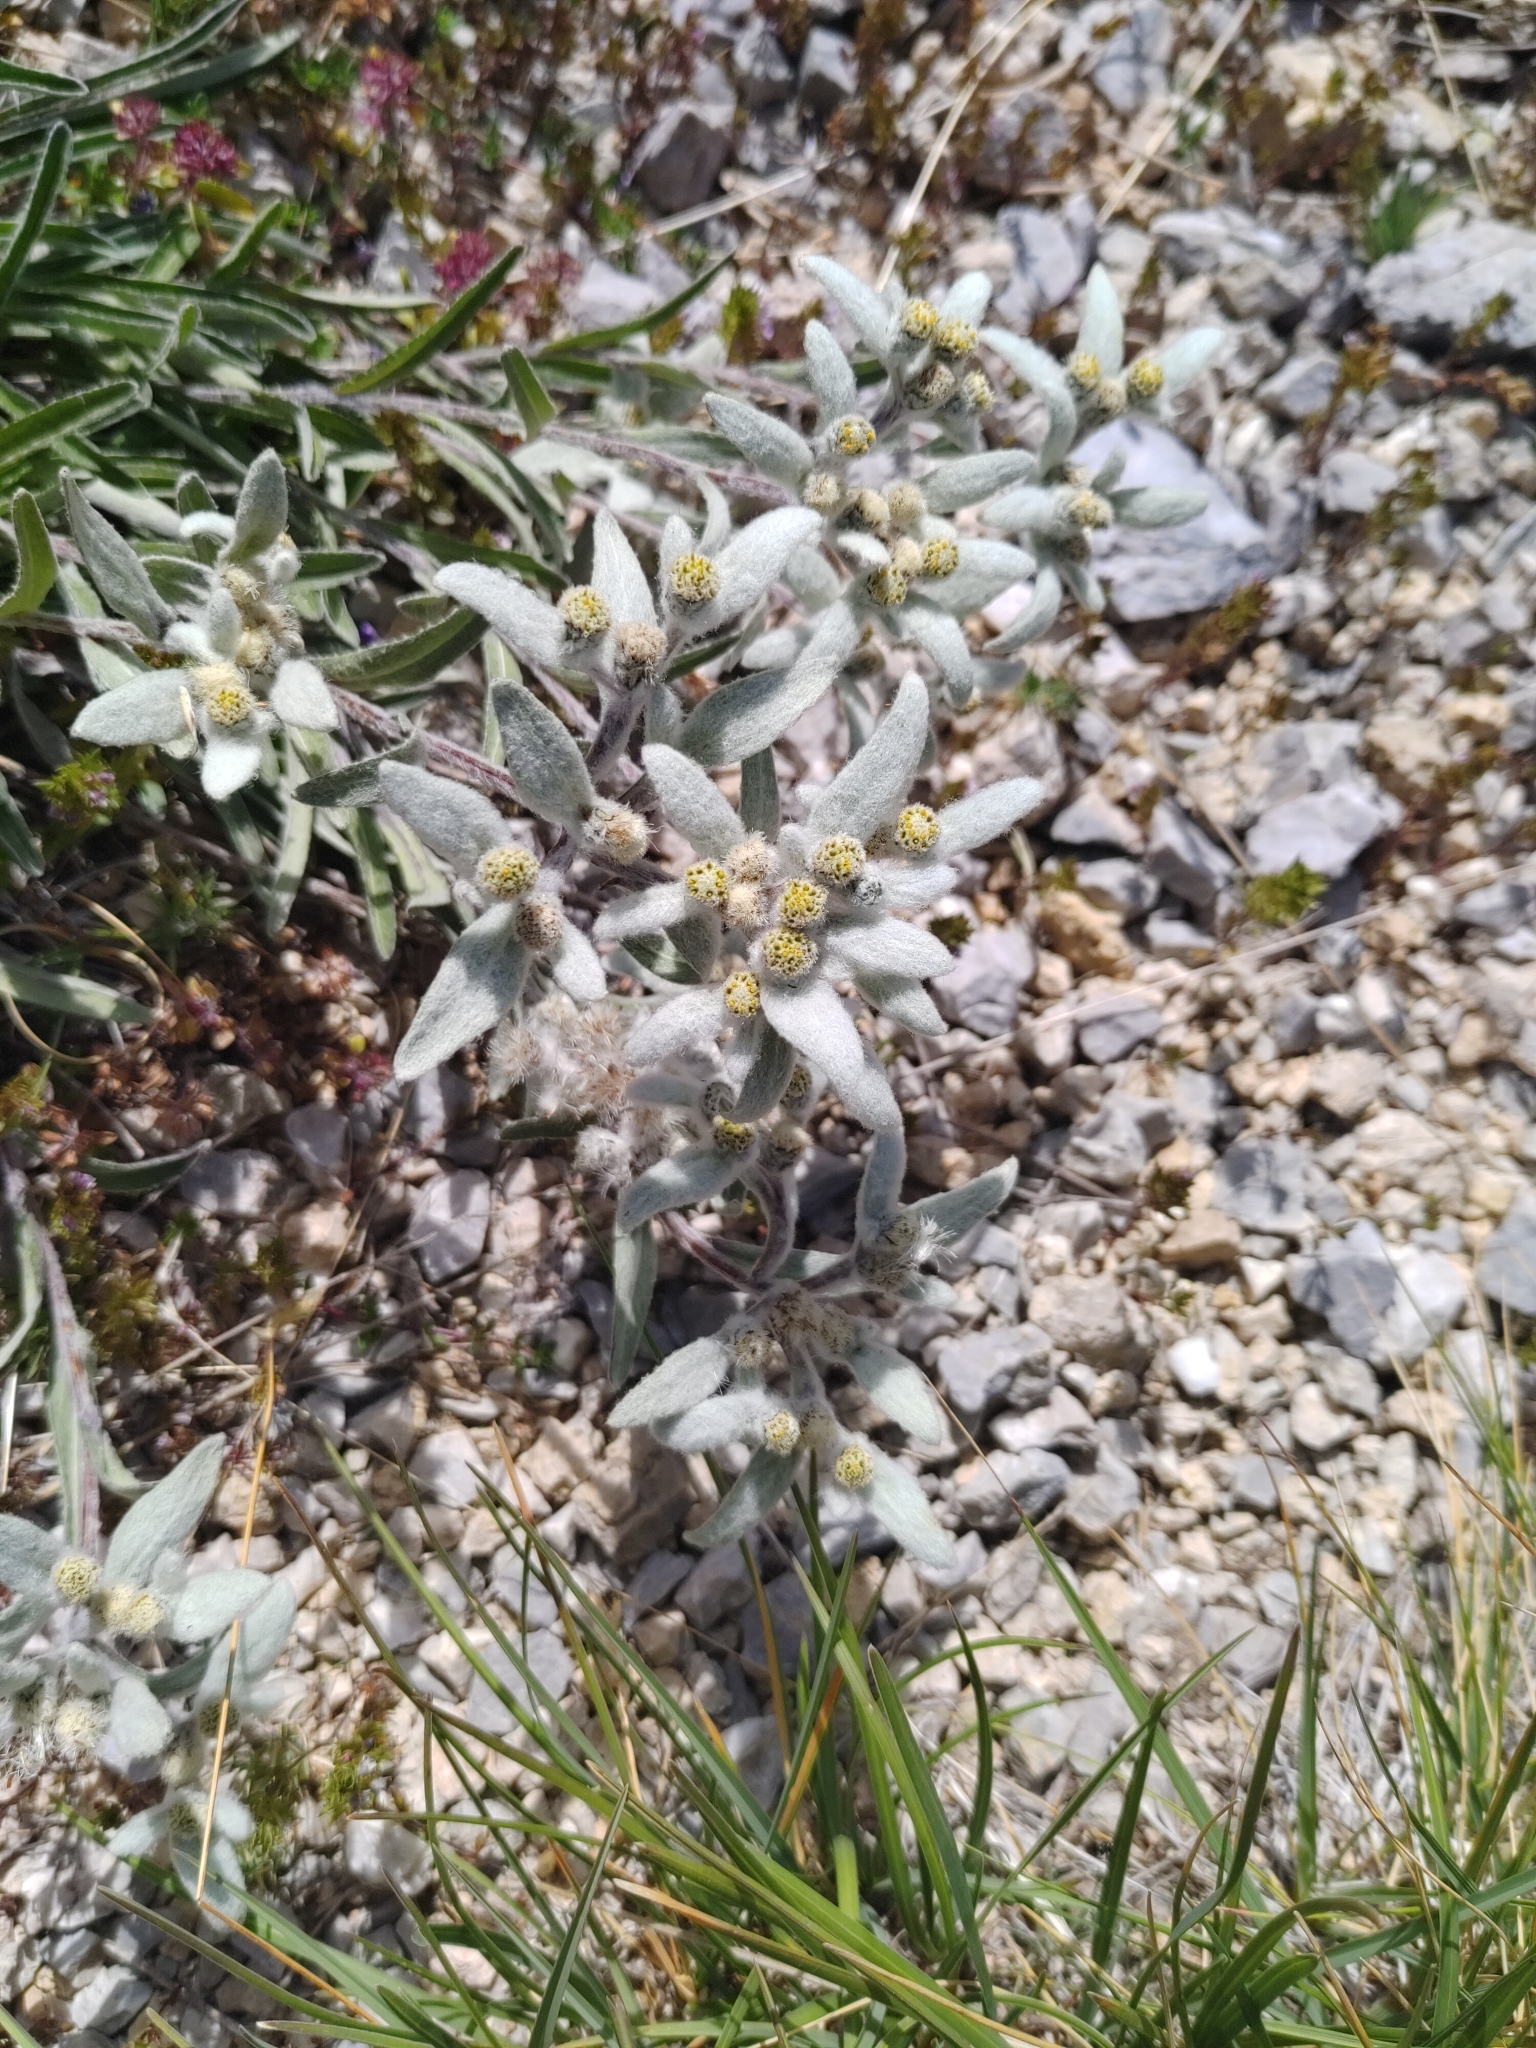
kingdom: Plantae
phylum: Tracheophyta
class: Magnoliopsida
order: Asterales
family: Asteraceae
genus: Leontopodium
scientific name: Leontopodium nivale
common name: Edelweiss
